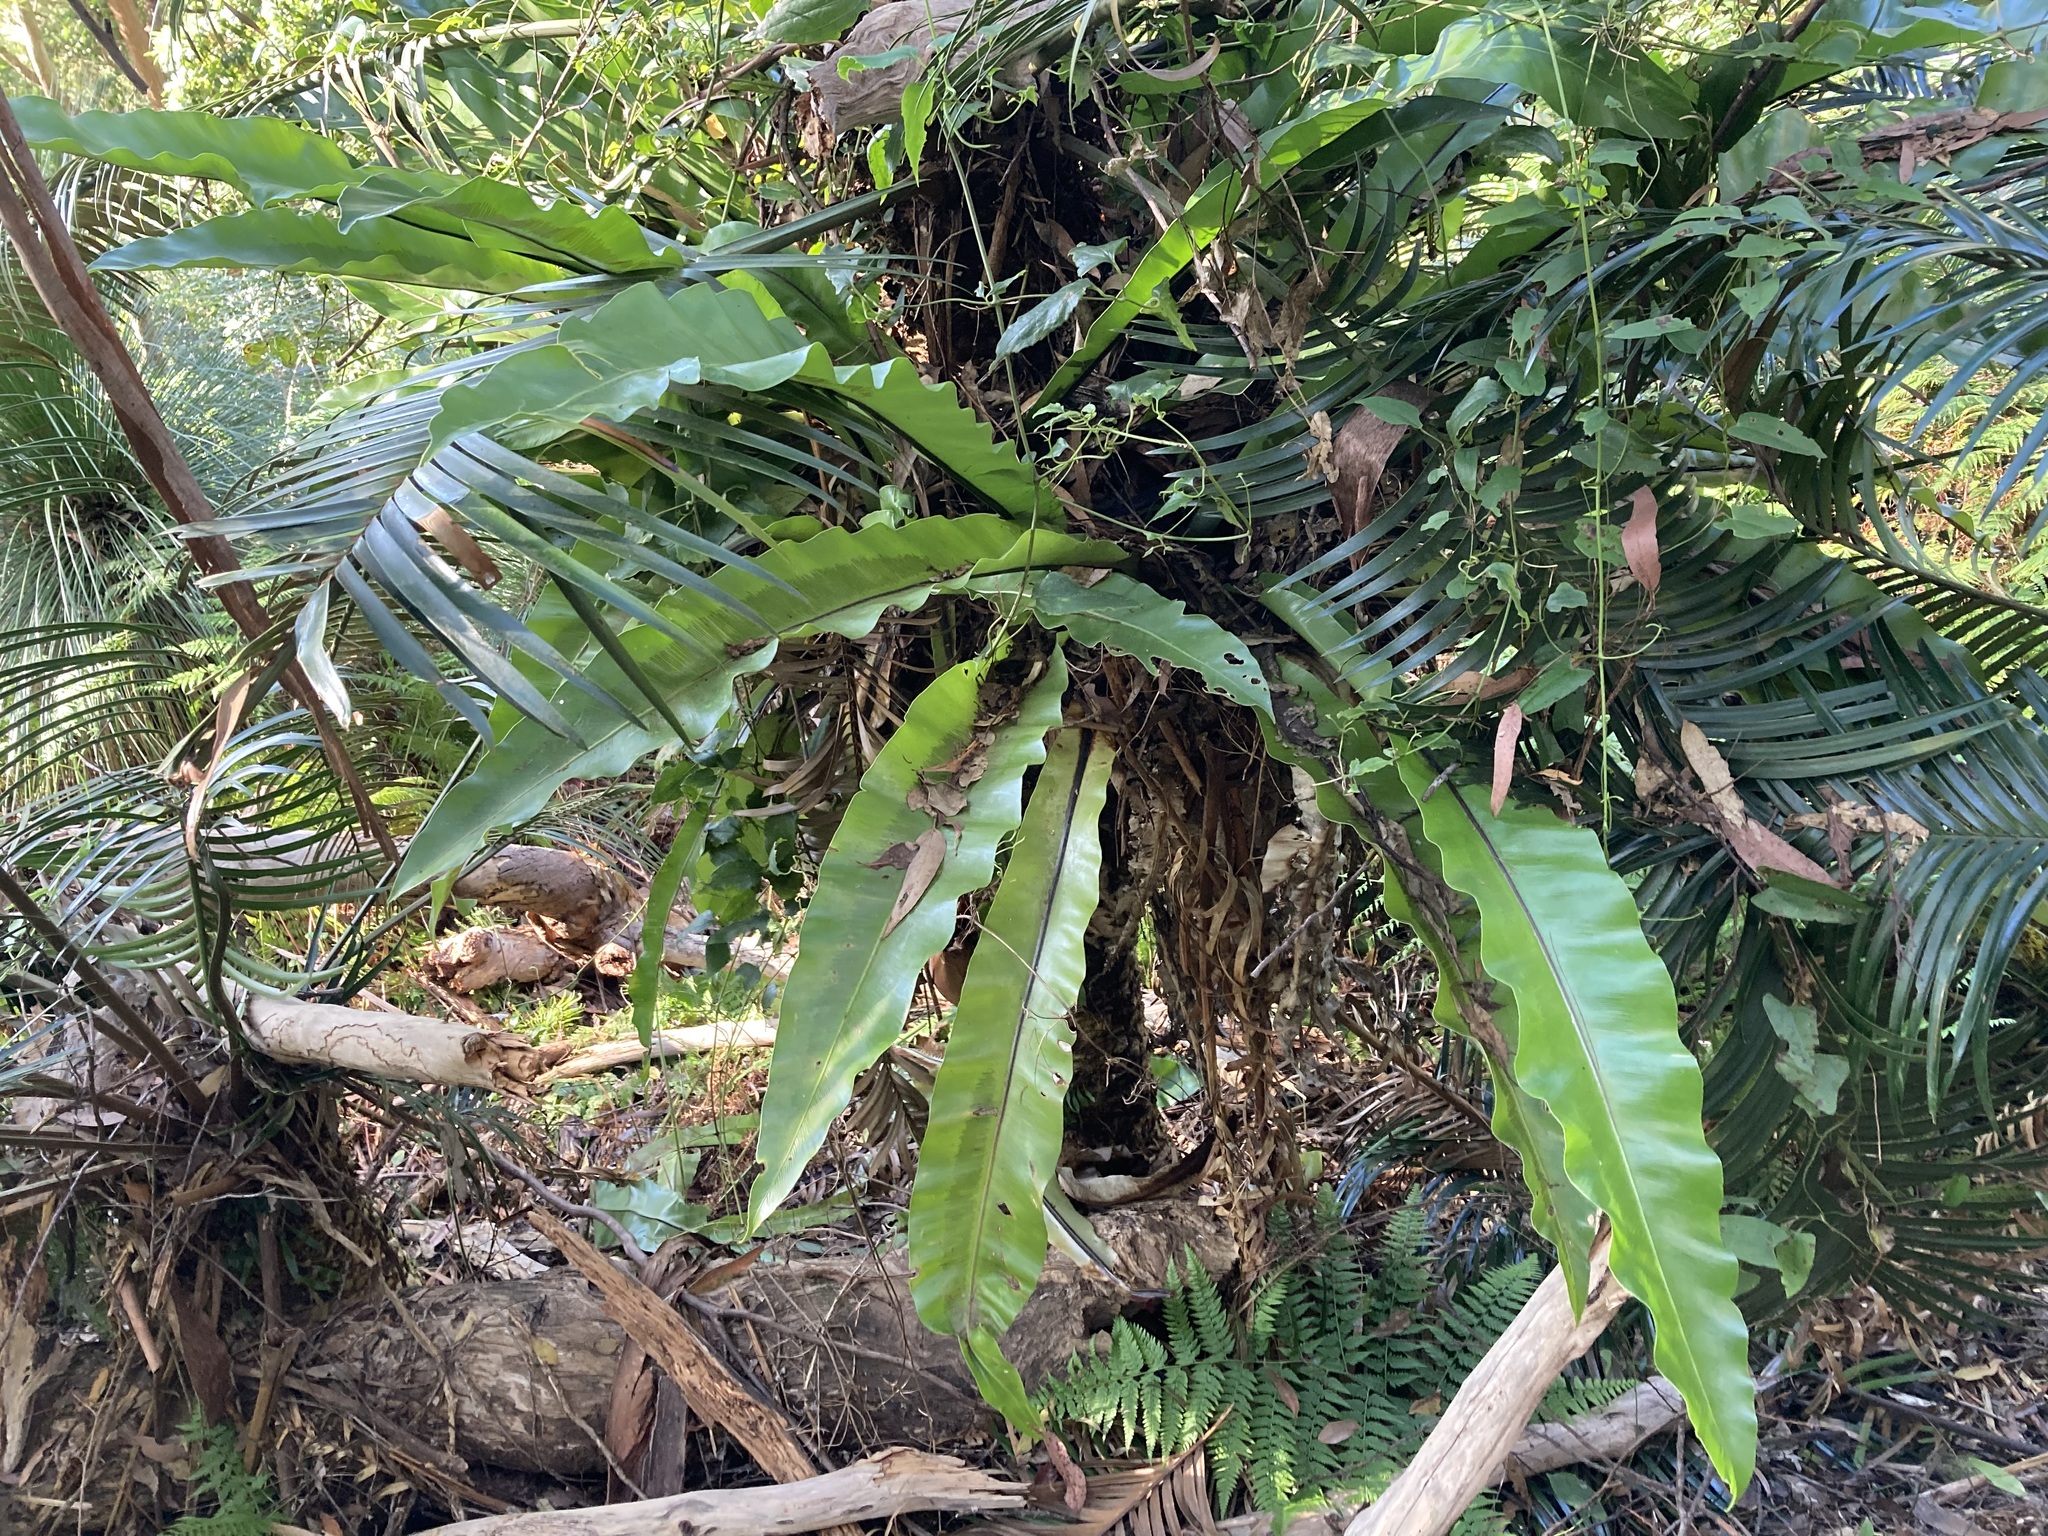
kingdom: Plantae
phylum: Tracheophyta
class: Polypodiopsida
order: Polypodiales
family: Aspleniaceae
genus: Asplenium
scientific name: Asplenium australasicum
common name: Bird's-nest fern
